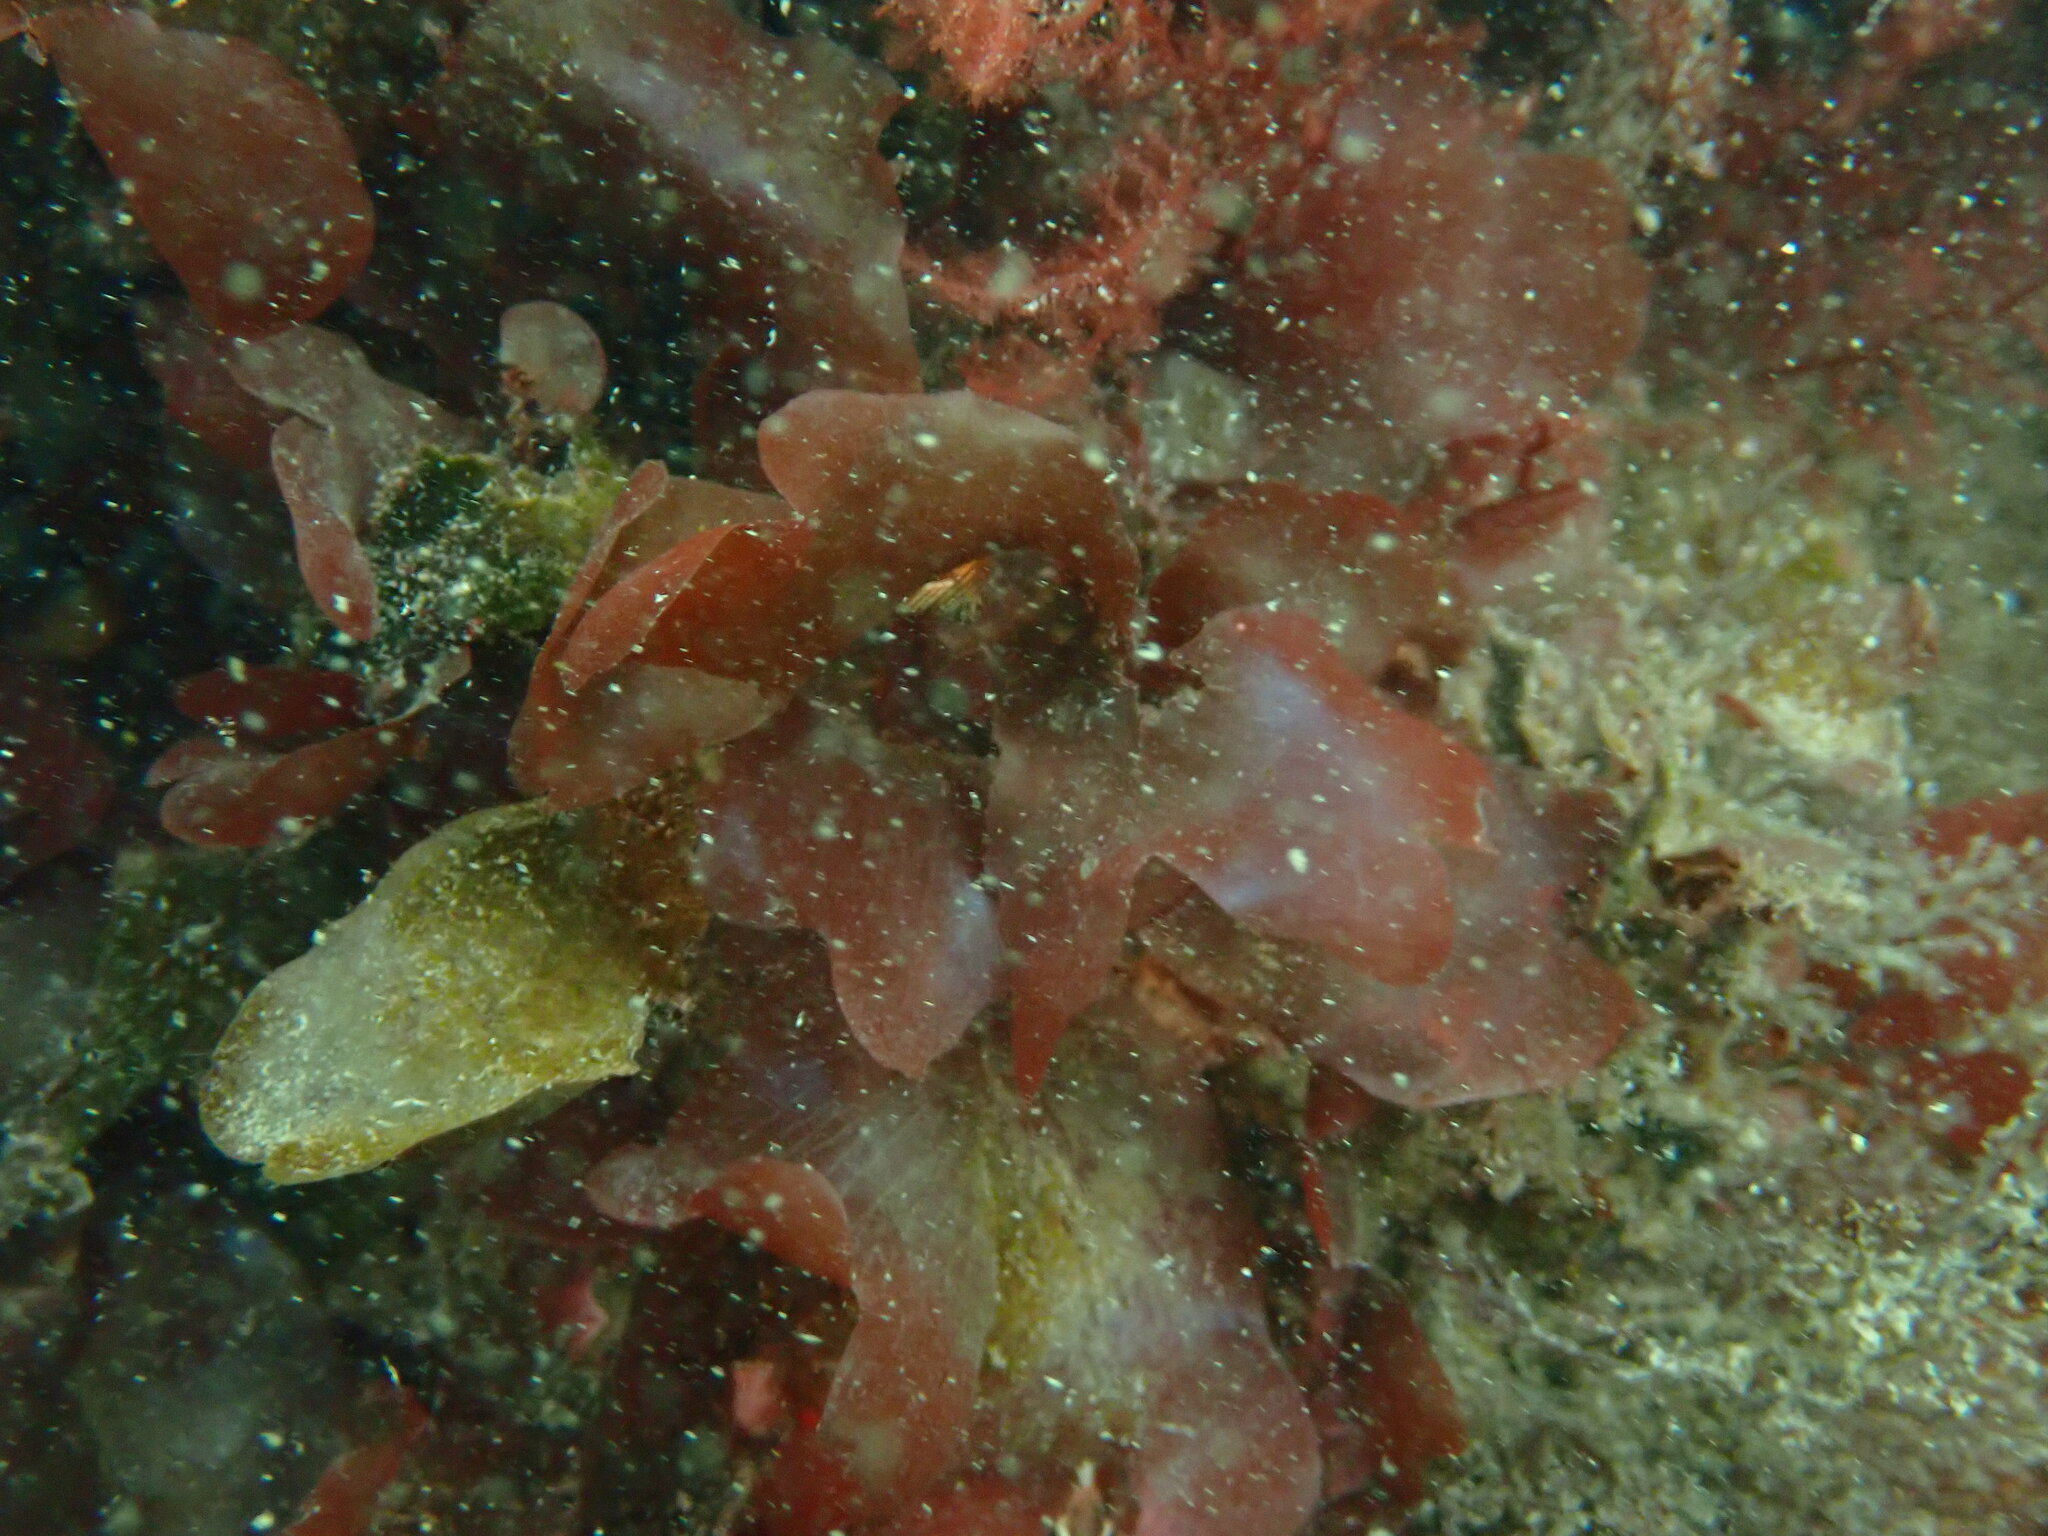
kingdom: Plantae
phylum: Rhodophyta
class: Florideophyceae
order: Gigartinales
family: Gigartinaceae
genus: Mazzaella
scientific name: Mazzaella splendens
